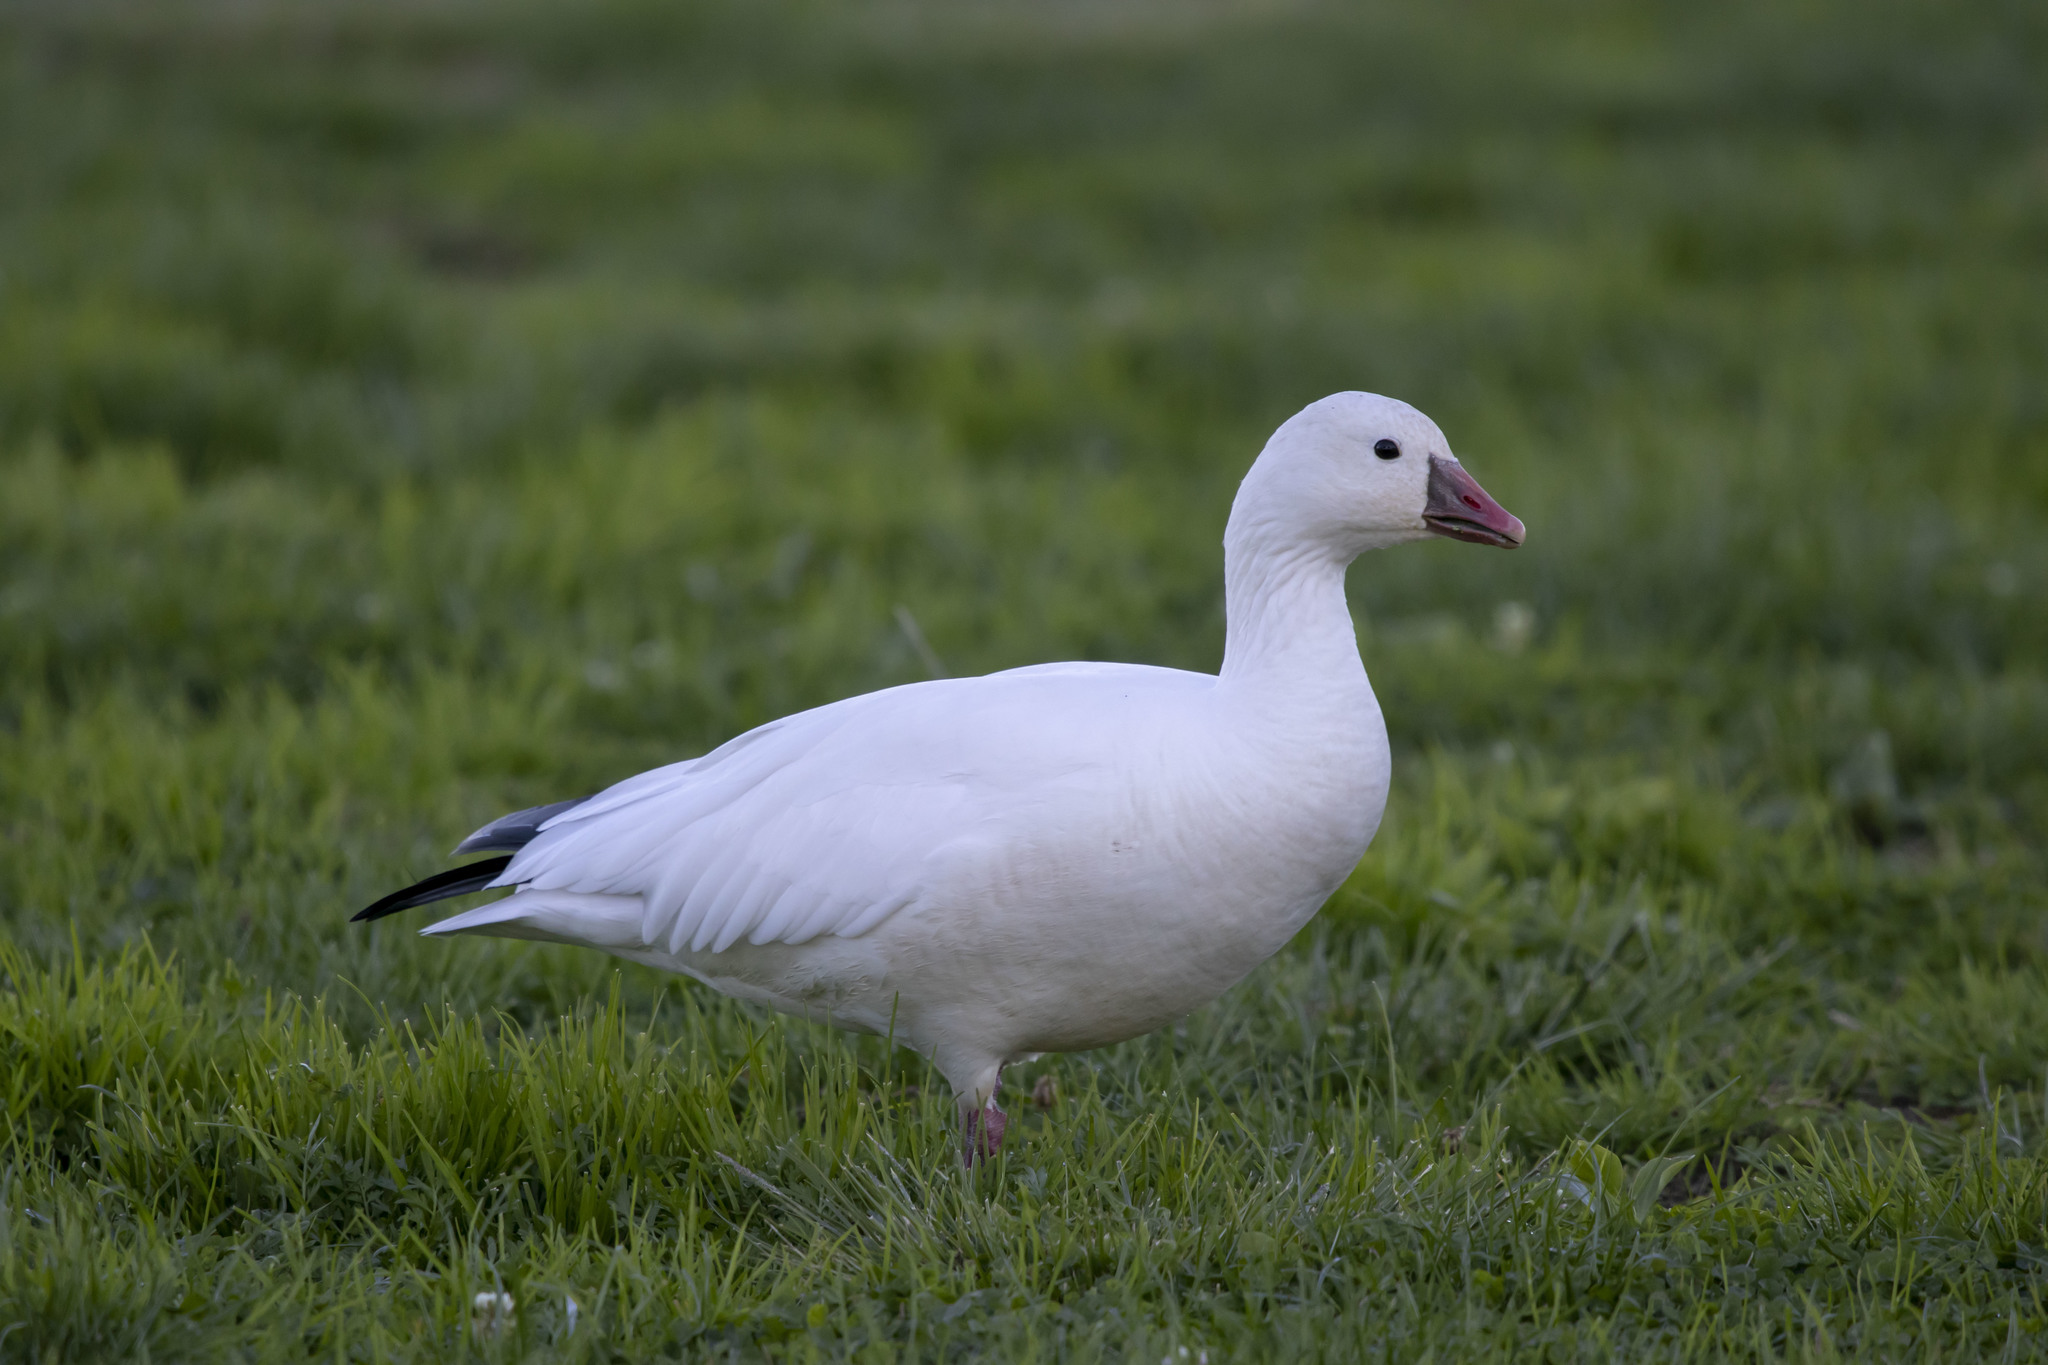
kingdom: Animalia
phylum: Chordata
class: Aves
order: Anseriformes
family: Anatidae
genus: Anser
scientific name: Anser rossii
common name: Ross's goose
